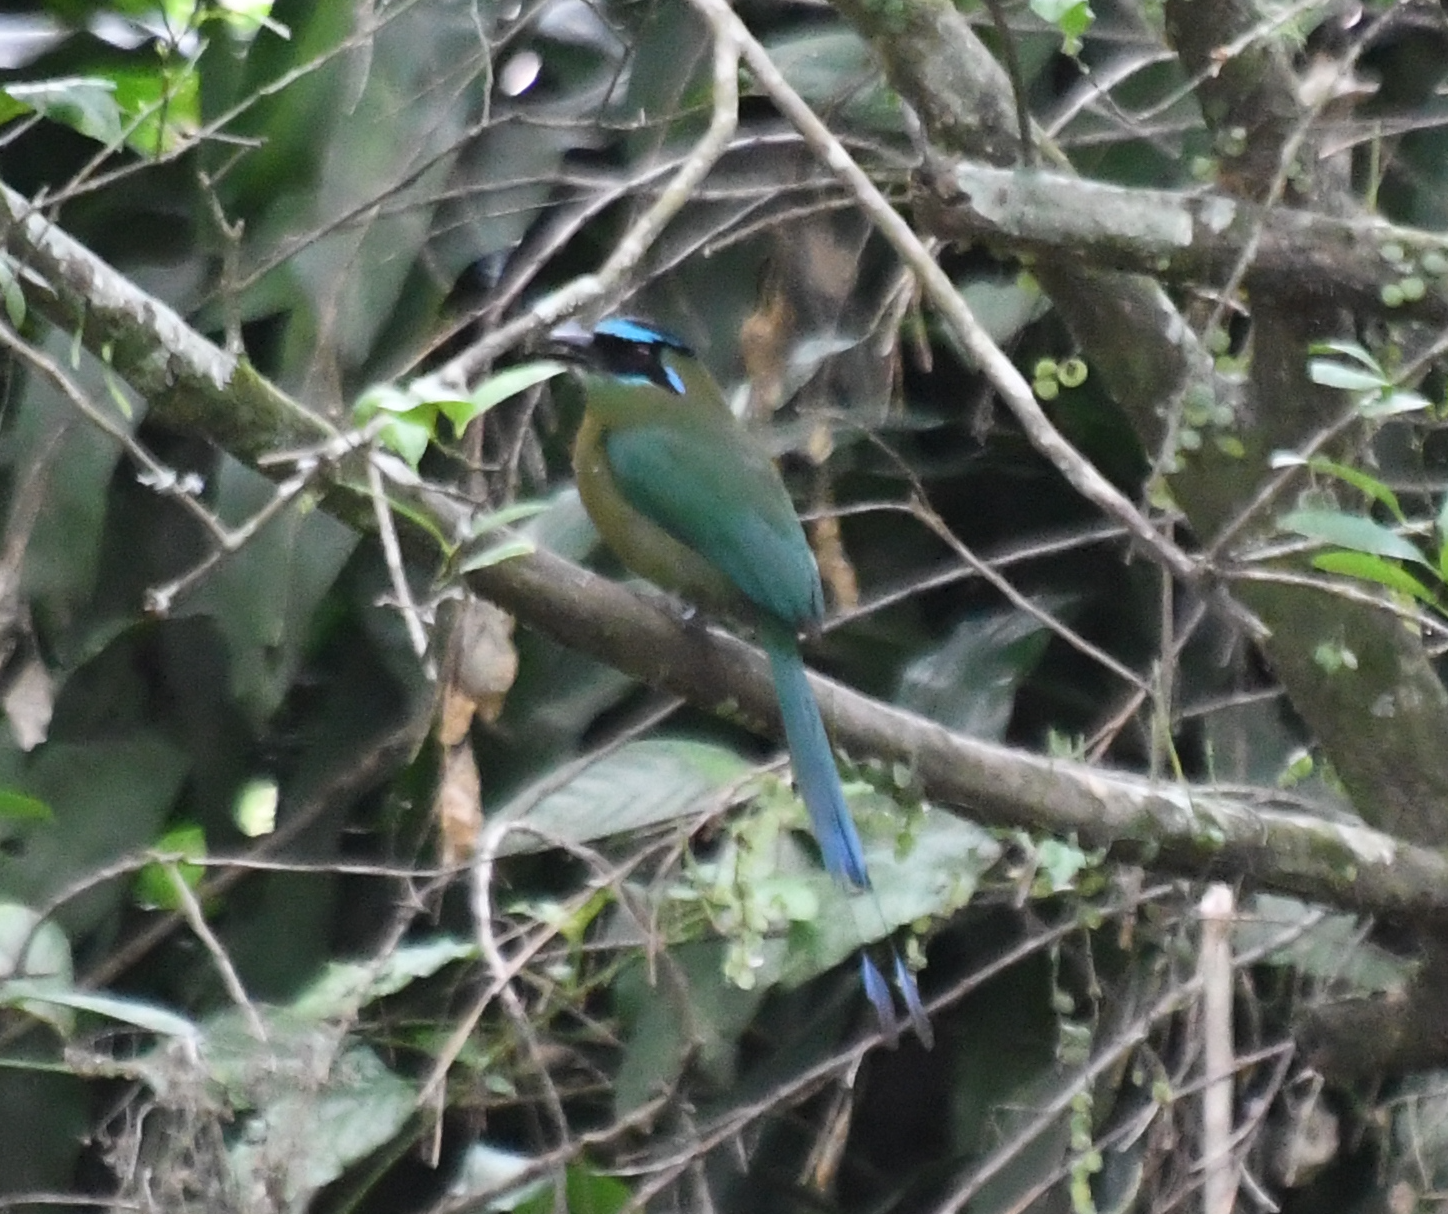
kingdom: Animalia
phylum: Chordata
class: Aves
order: Coraciiformes
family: Momotidae
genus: Momotus
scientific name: Momotus lessonii
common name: Lesson's motmot
